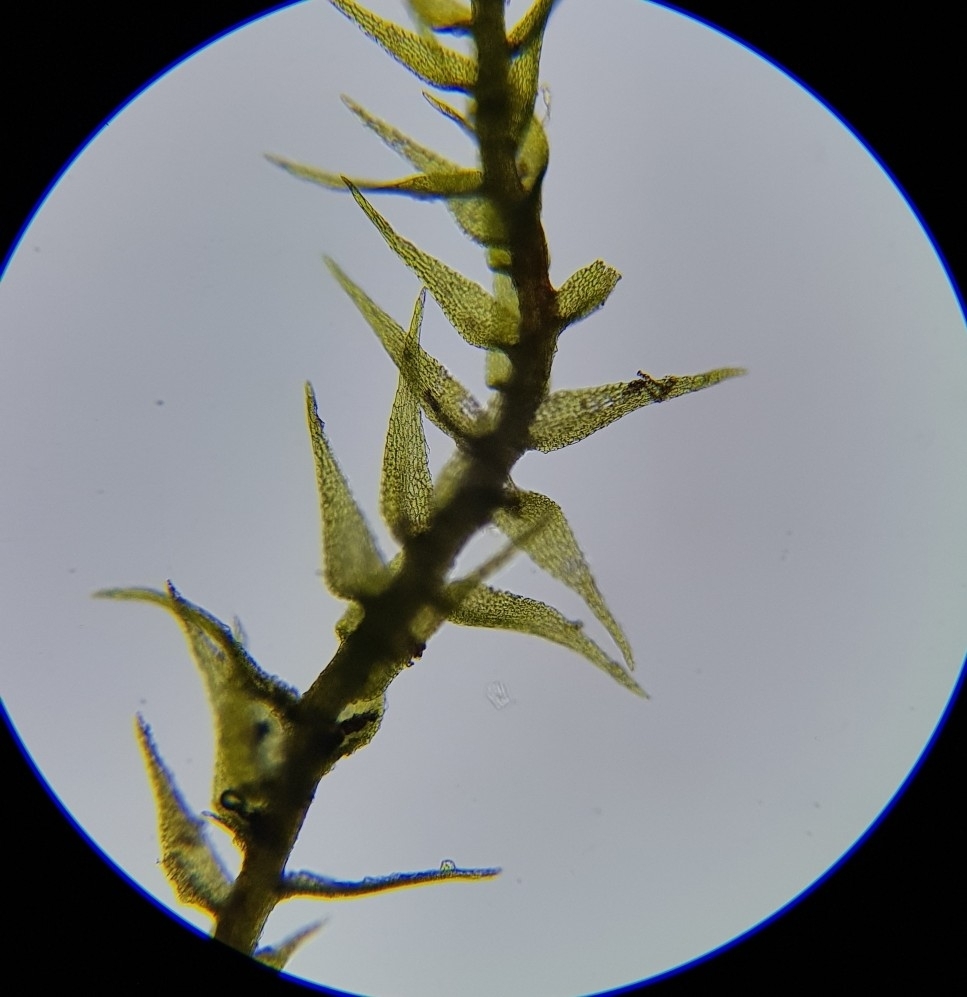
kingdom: Plantae
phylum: Bryophyta
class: Bryopsida
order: Hypnales
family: Amblystegiaceae
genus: Amblystegium
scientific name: Amblystegium serpens
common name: Jurkatzka's feather moss
